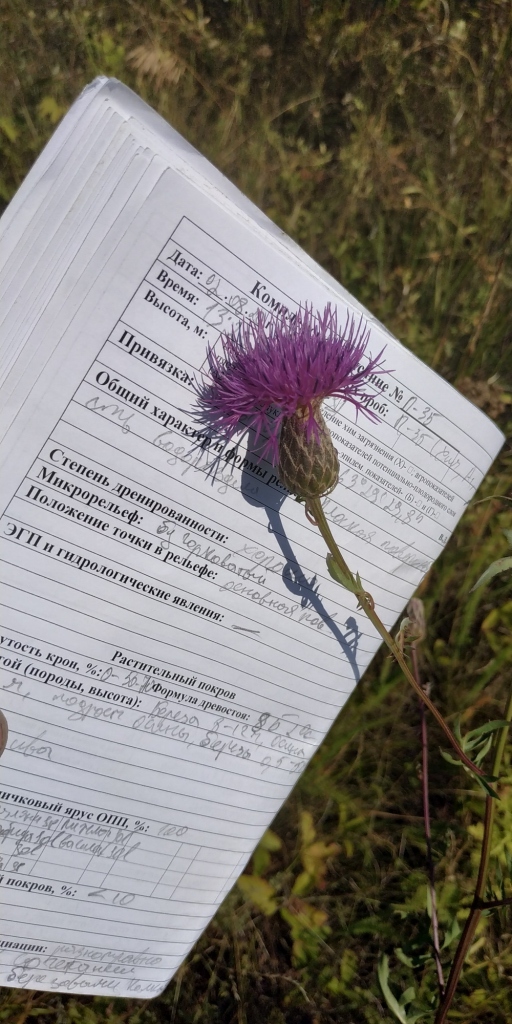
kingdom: Plantae
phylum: Tracheophyta
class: Magnoliopsida
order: Asterales
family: Asteraceae
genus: Serratula
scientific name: Serratula coronata
